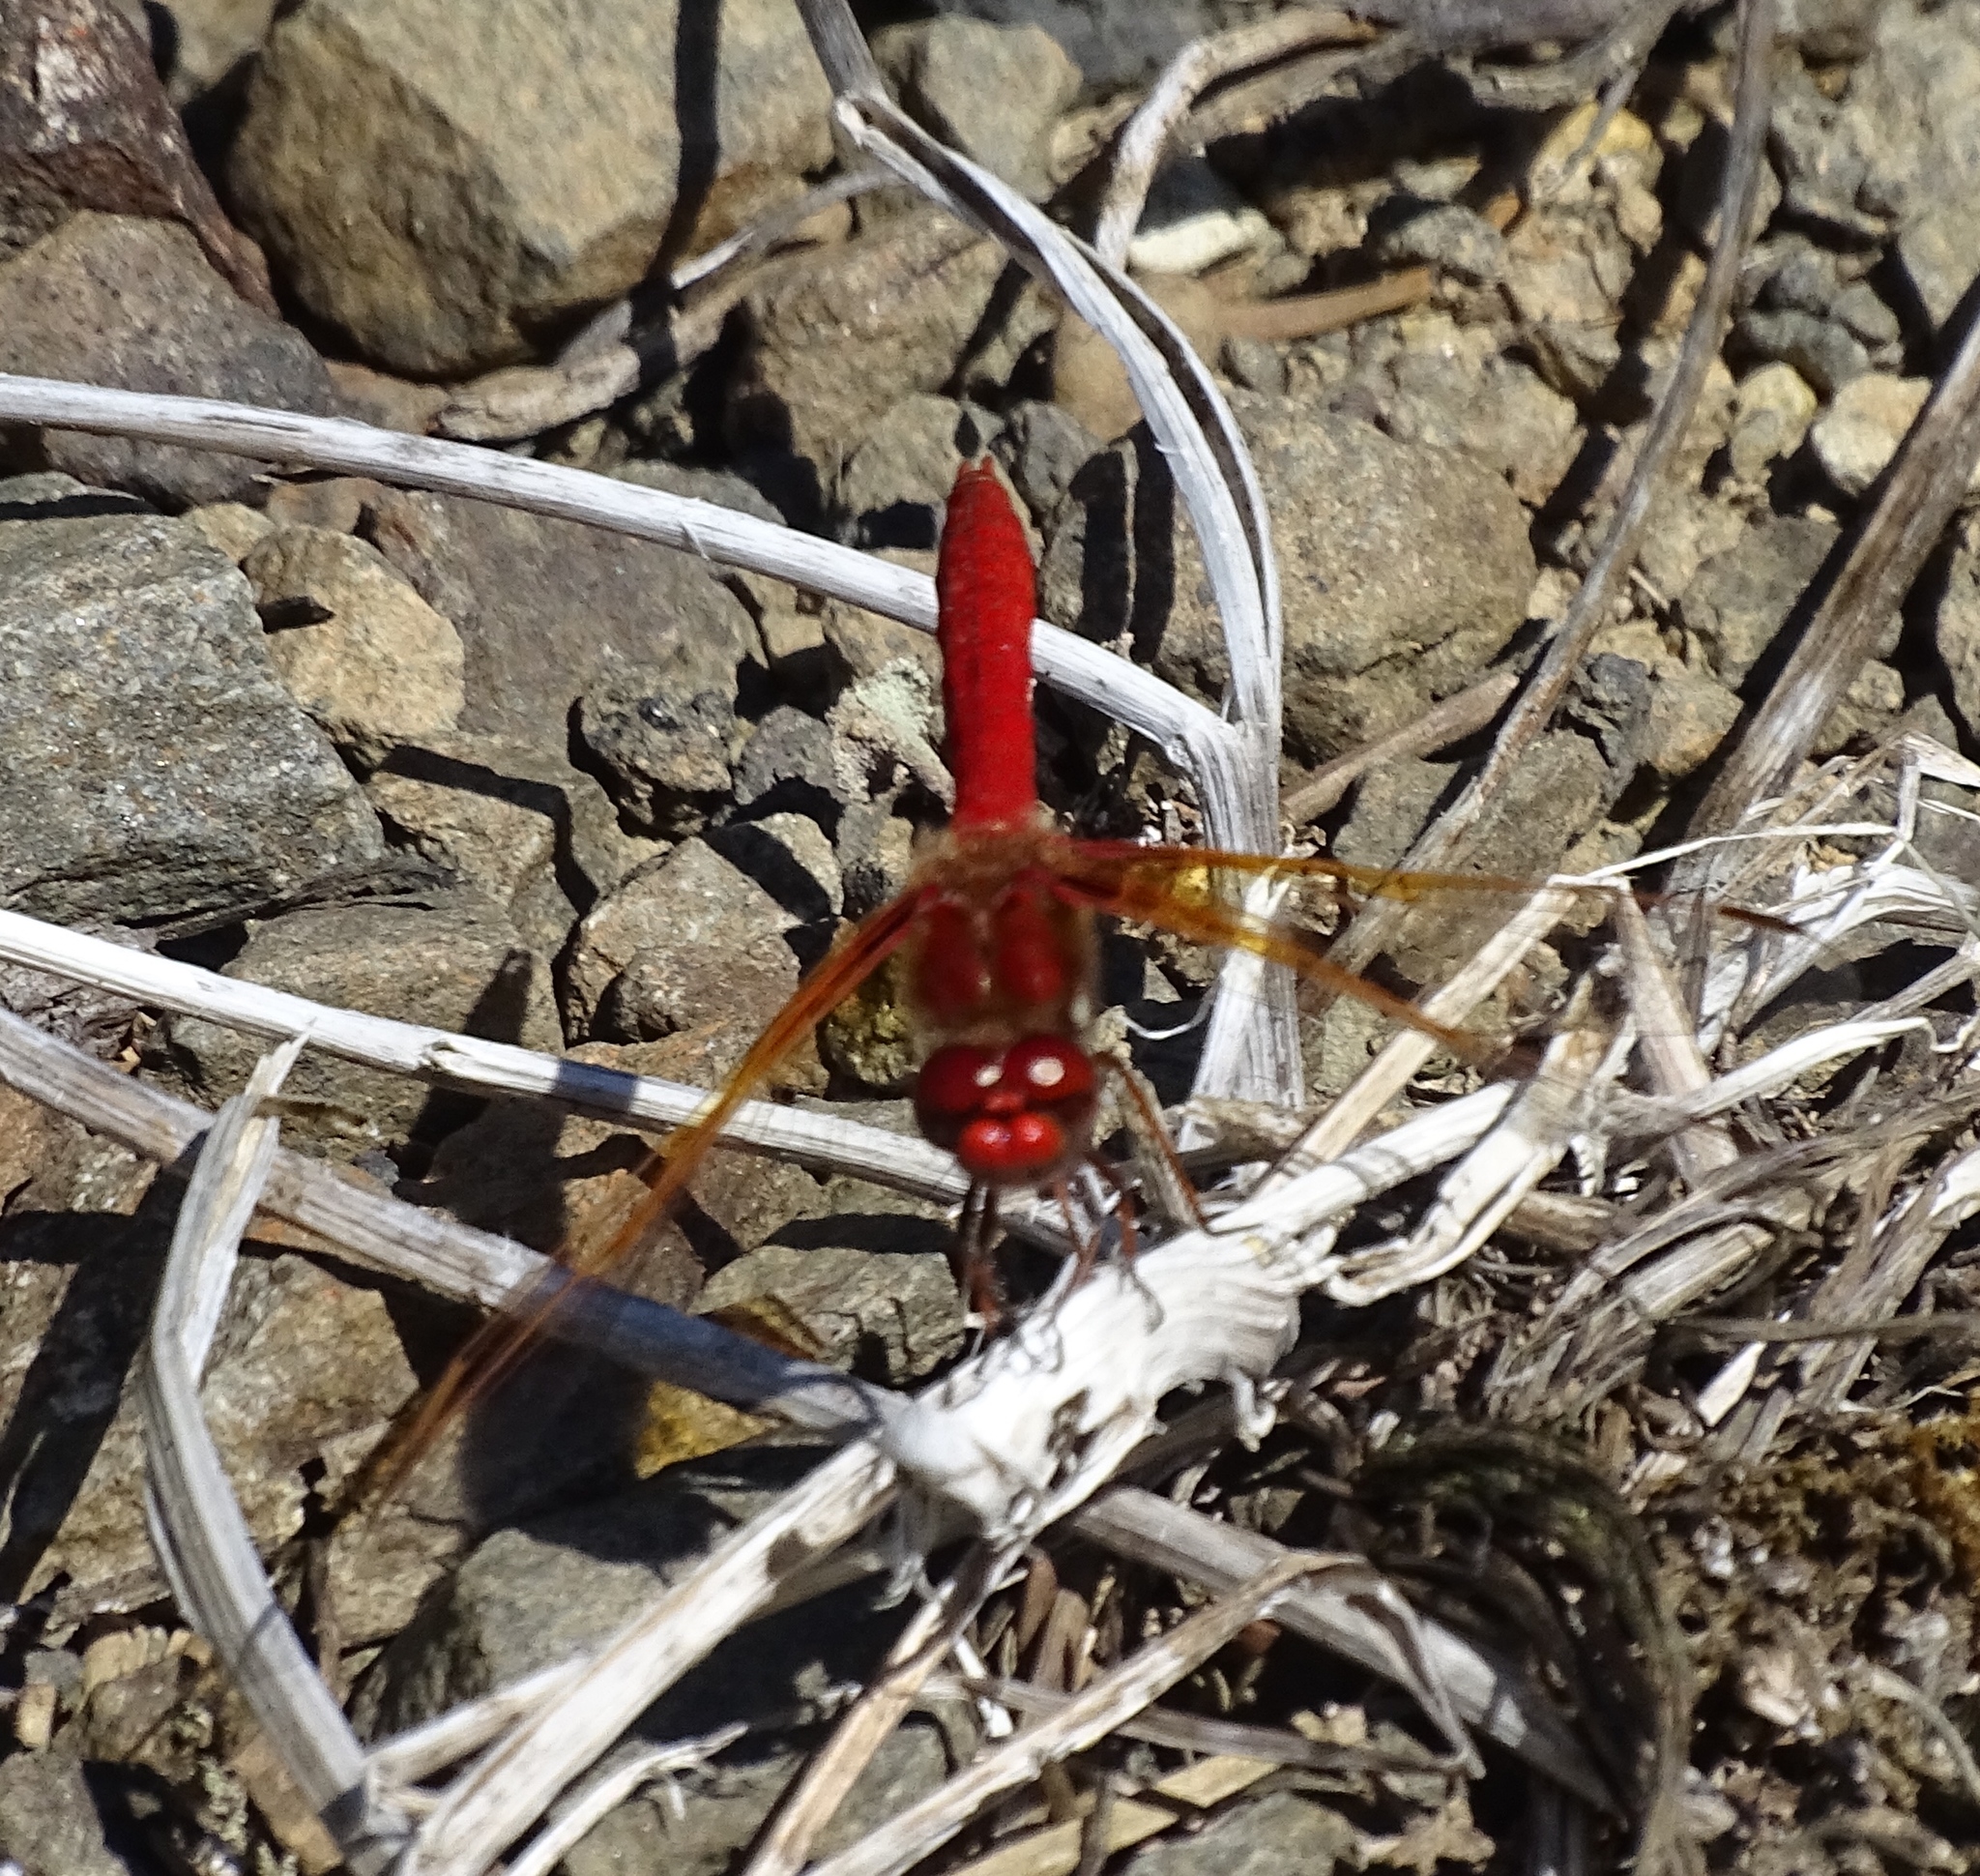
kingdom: Animalia
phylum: Arthropoda
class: Insecta
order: Odonata
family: Libellulidae
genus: Sympetrum
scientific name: Sympetrum illotum
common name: Cardinal meadowhawk
